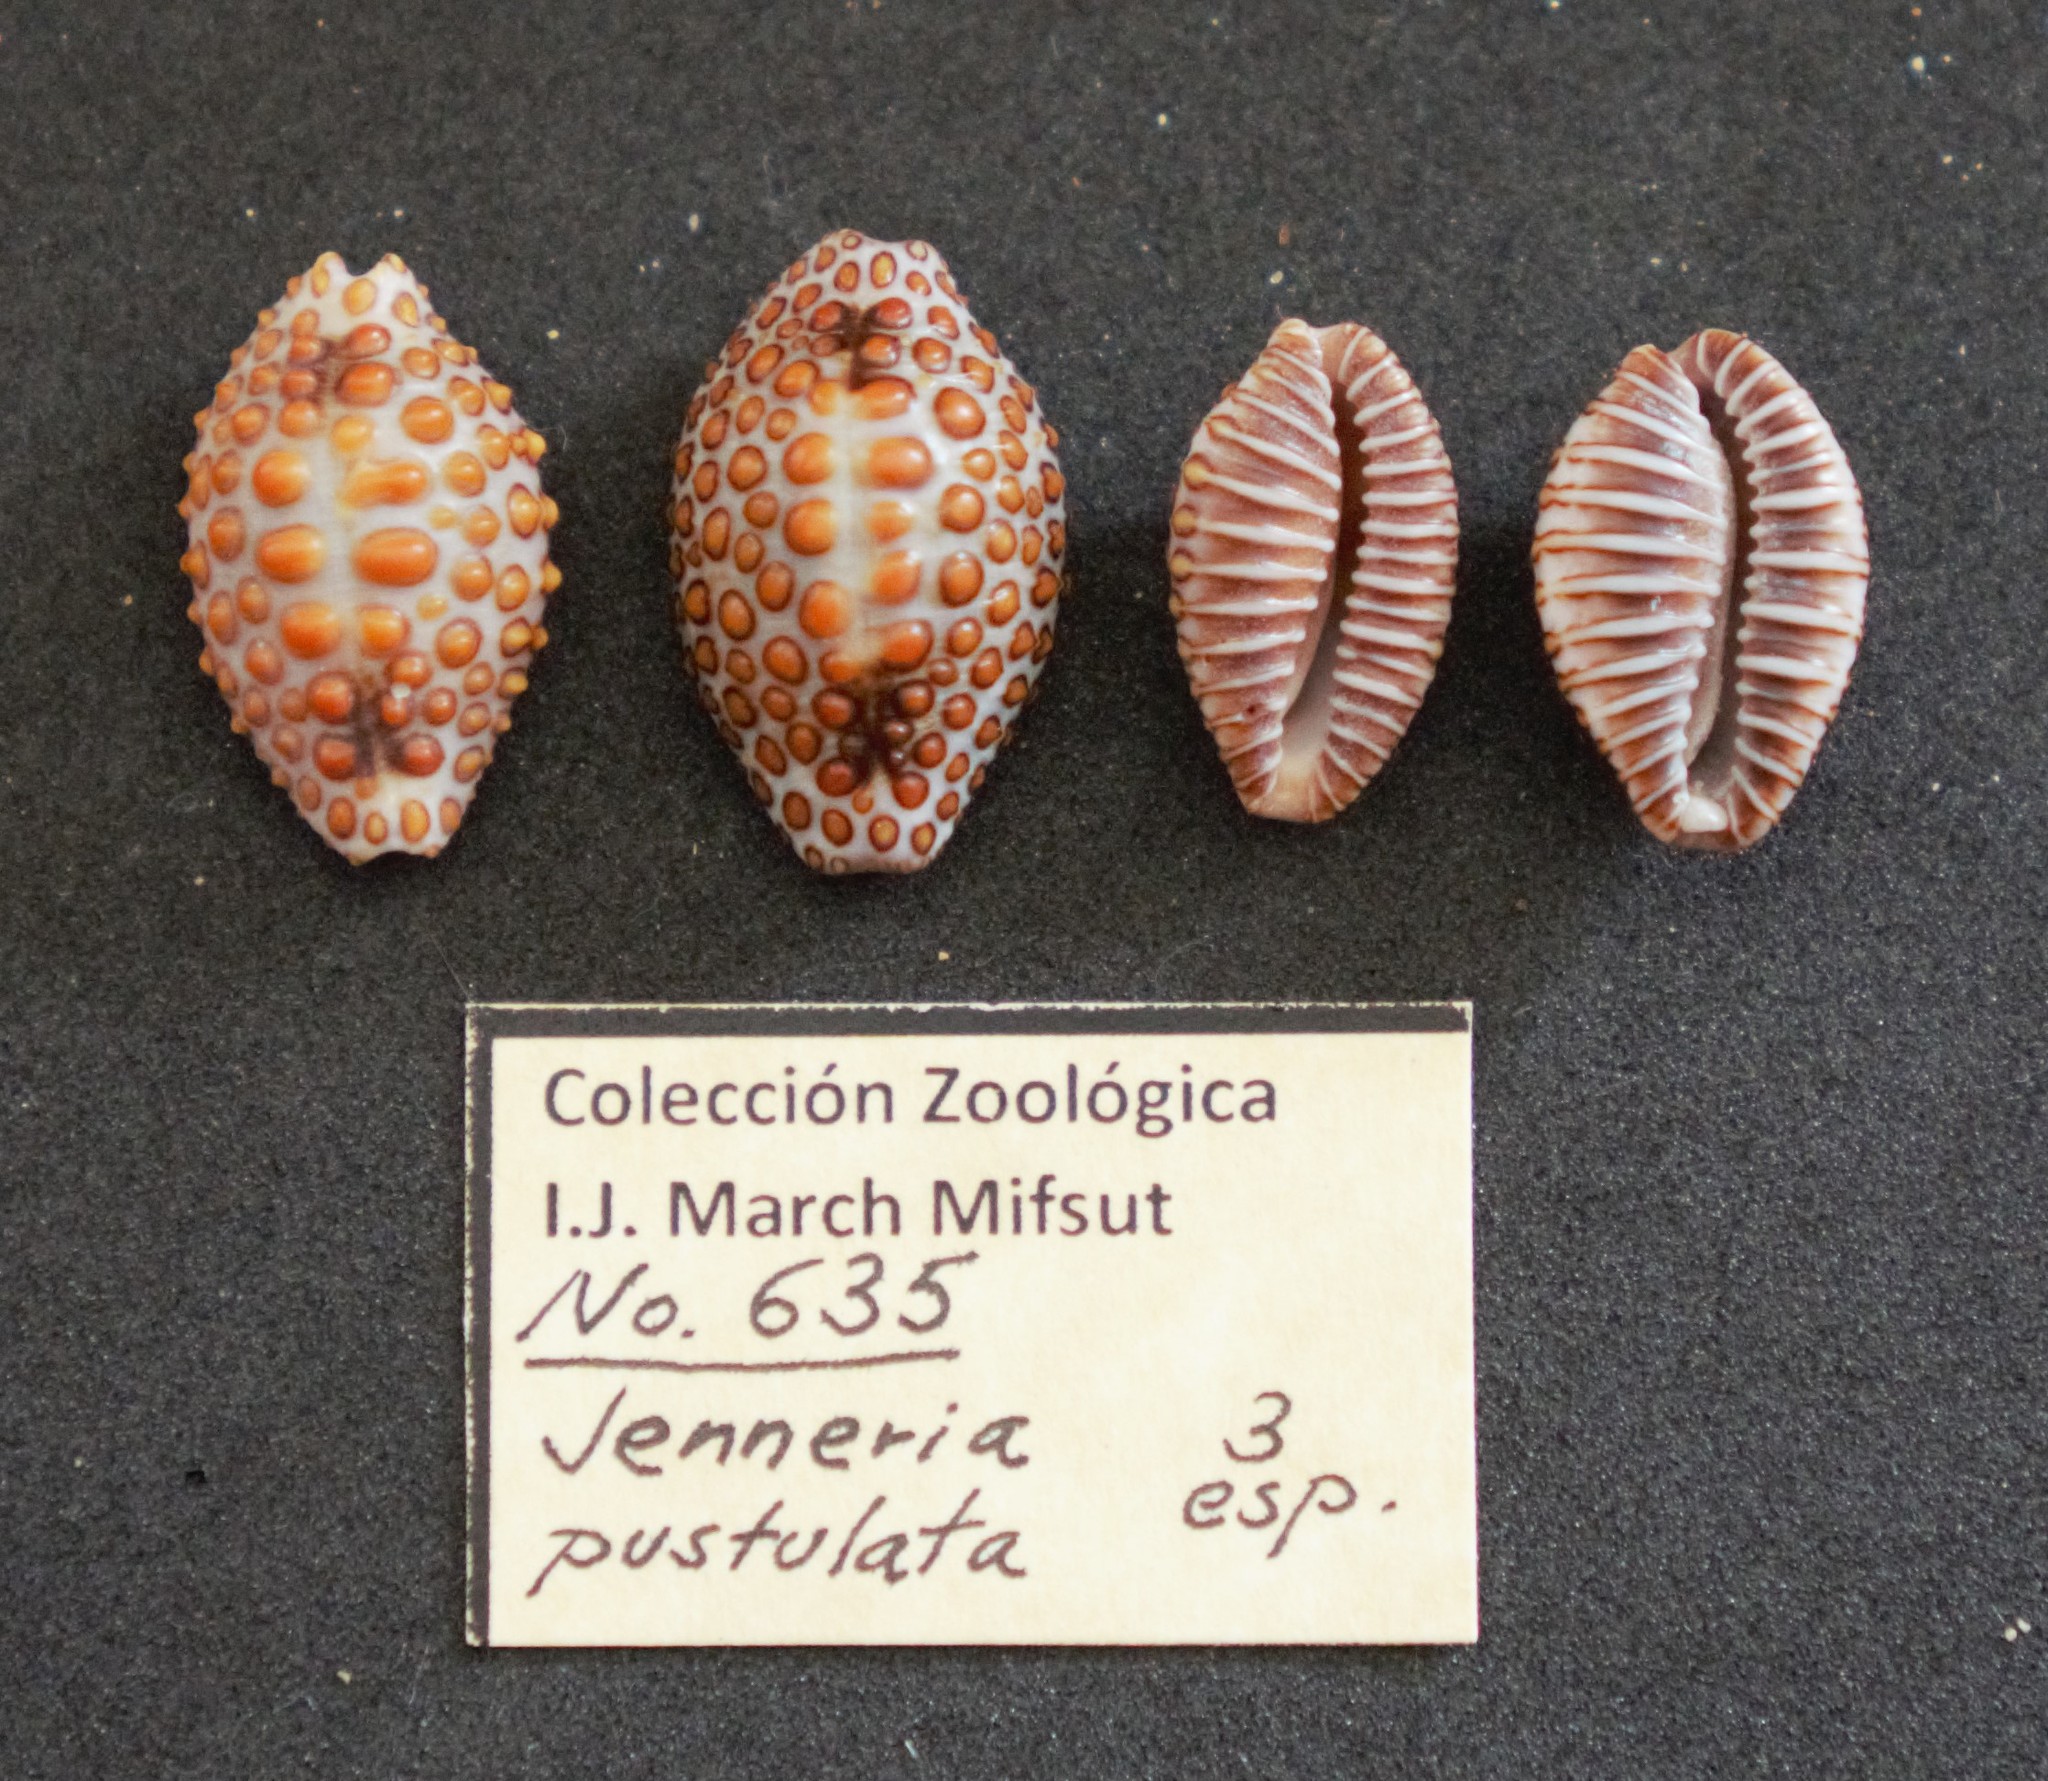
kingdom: Animalia
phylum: Mollusca
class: Gastropoda
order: Littorinimorpha
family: Pediculariidae
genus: Jenneria
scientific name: Jenneria pustulata
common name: Pustuled cowrie
